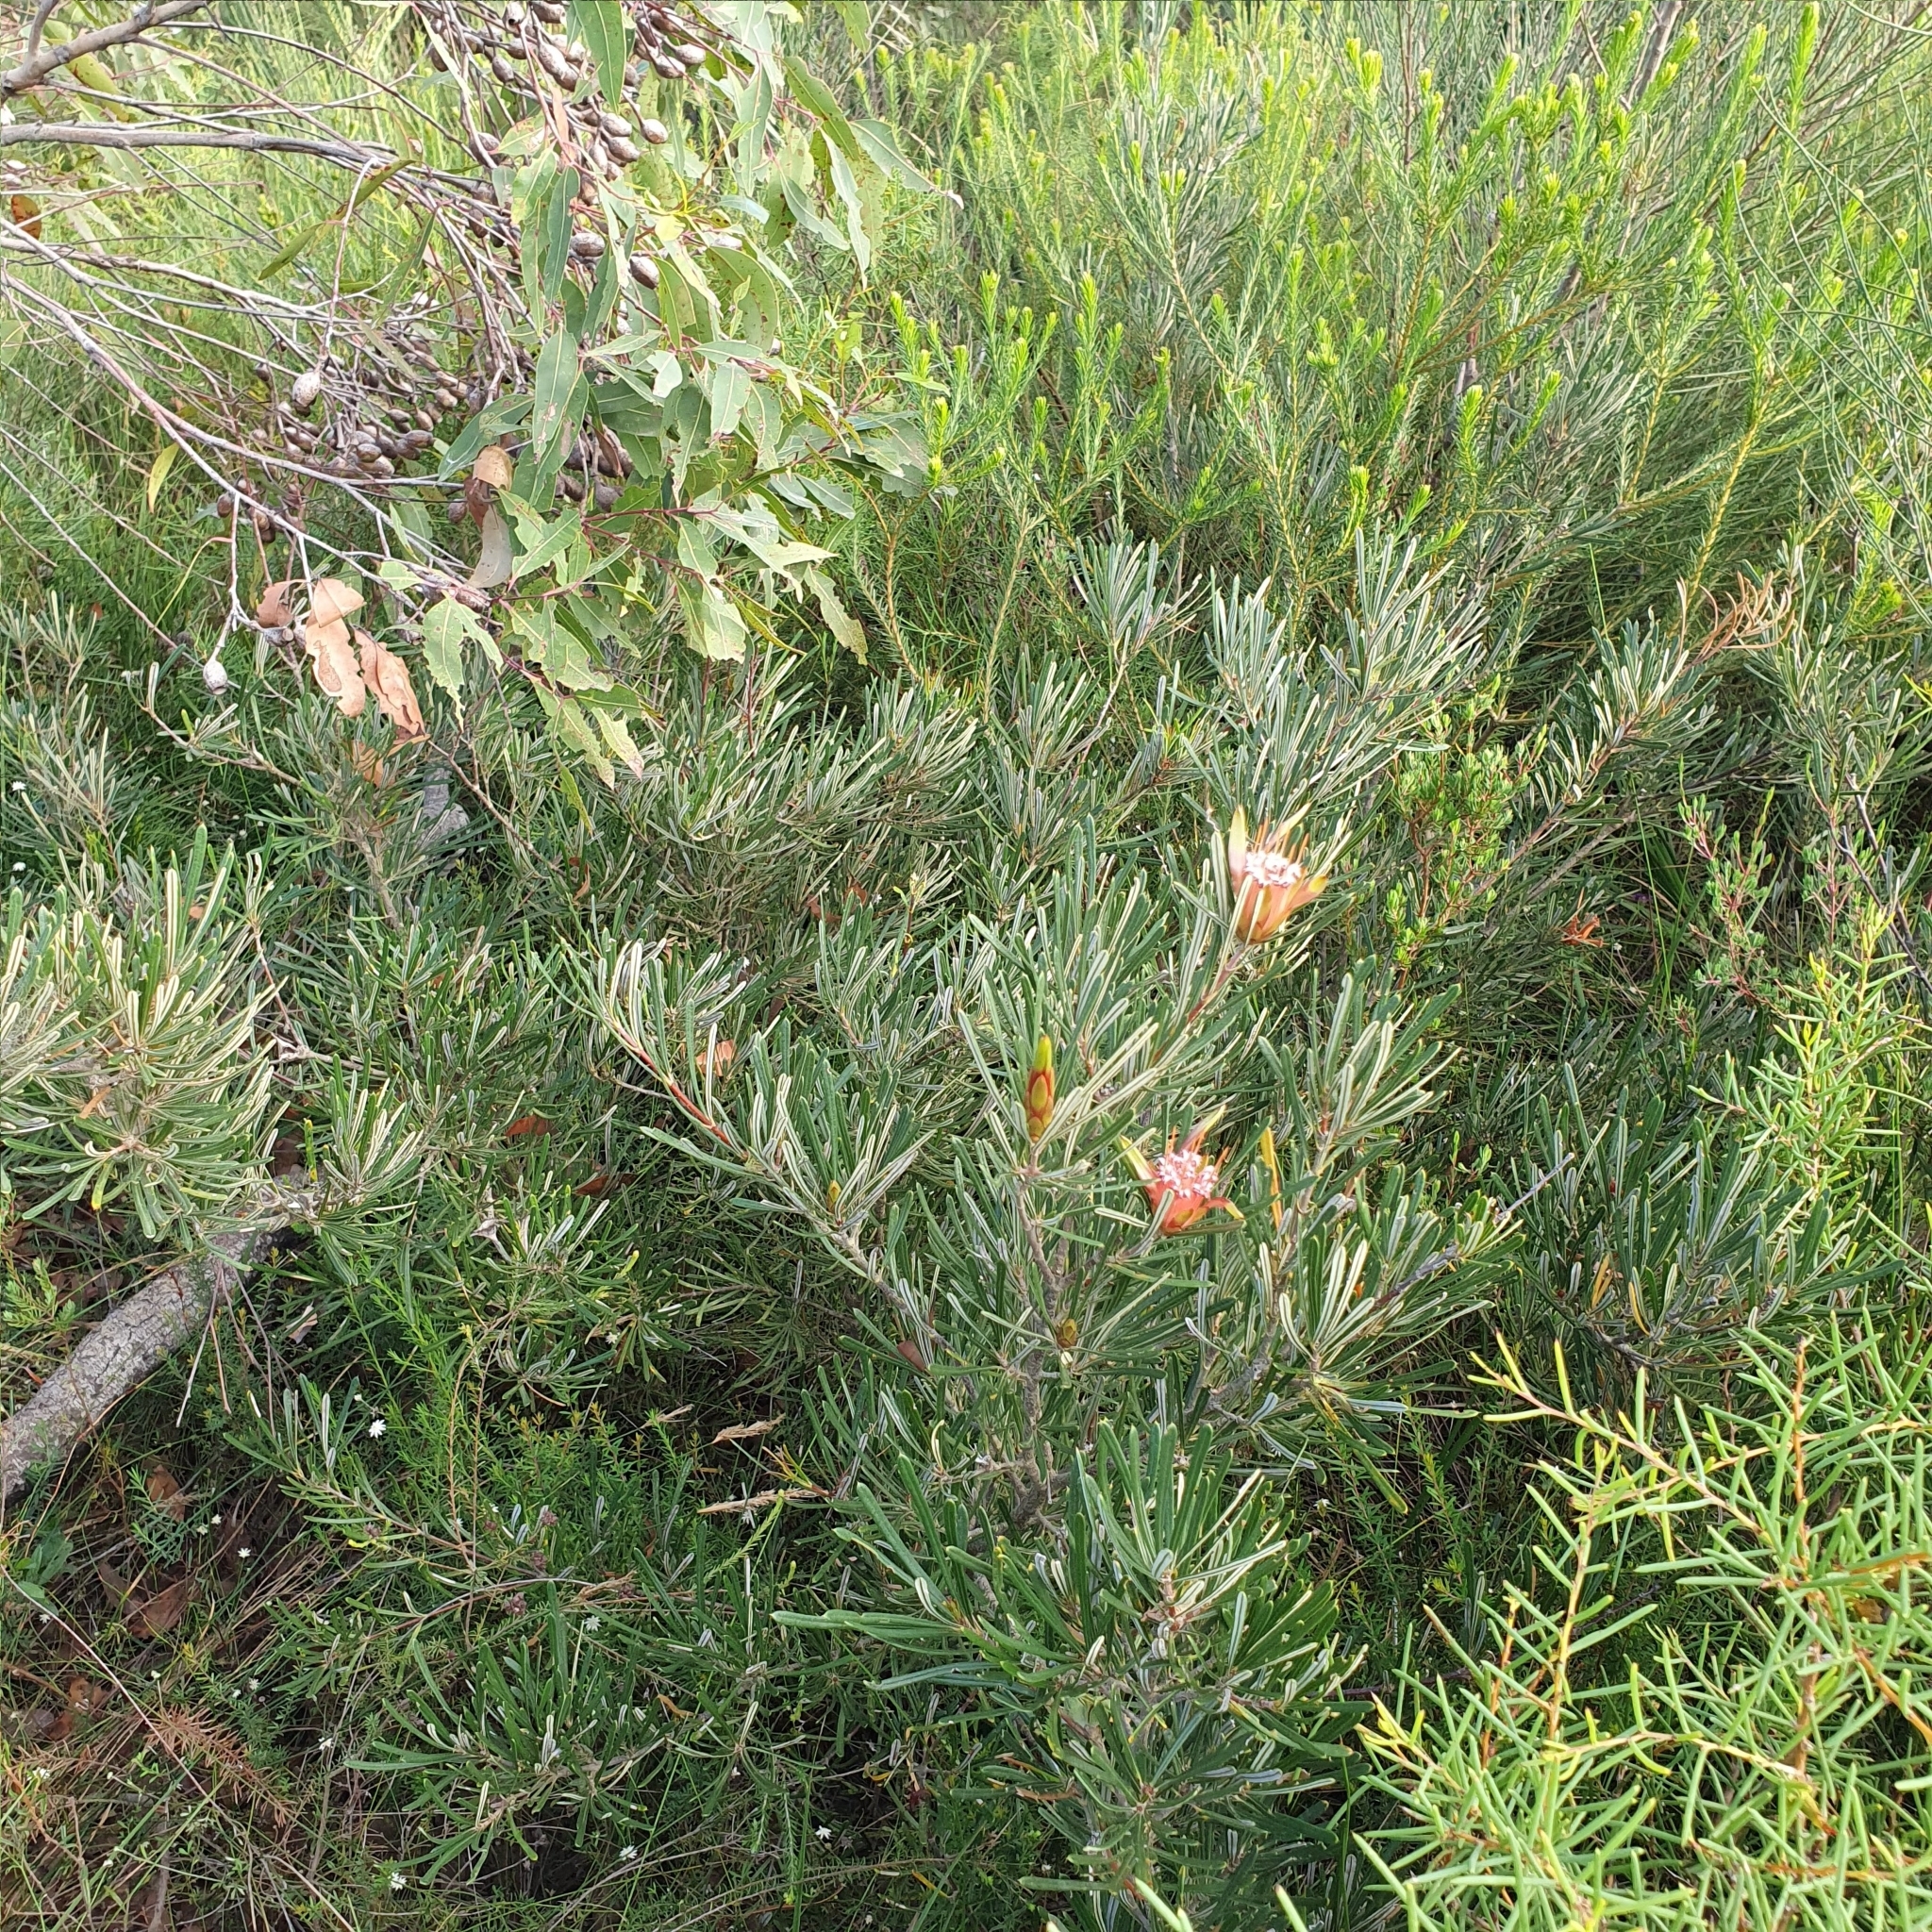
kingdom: Plantae
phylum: Tracheophyta
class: Magnoliopsida
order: Proteales
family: Proteaceae
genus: Lambertia
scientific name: Lambertia formosa
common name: Mountain-devil
